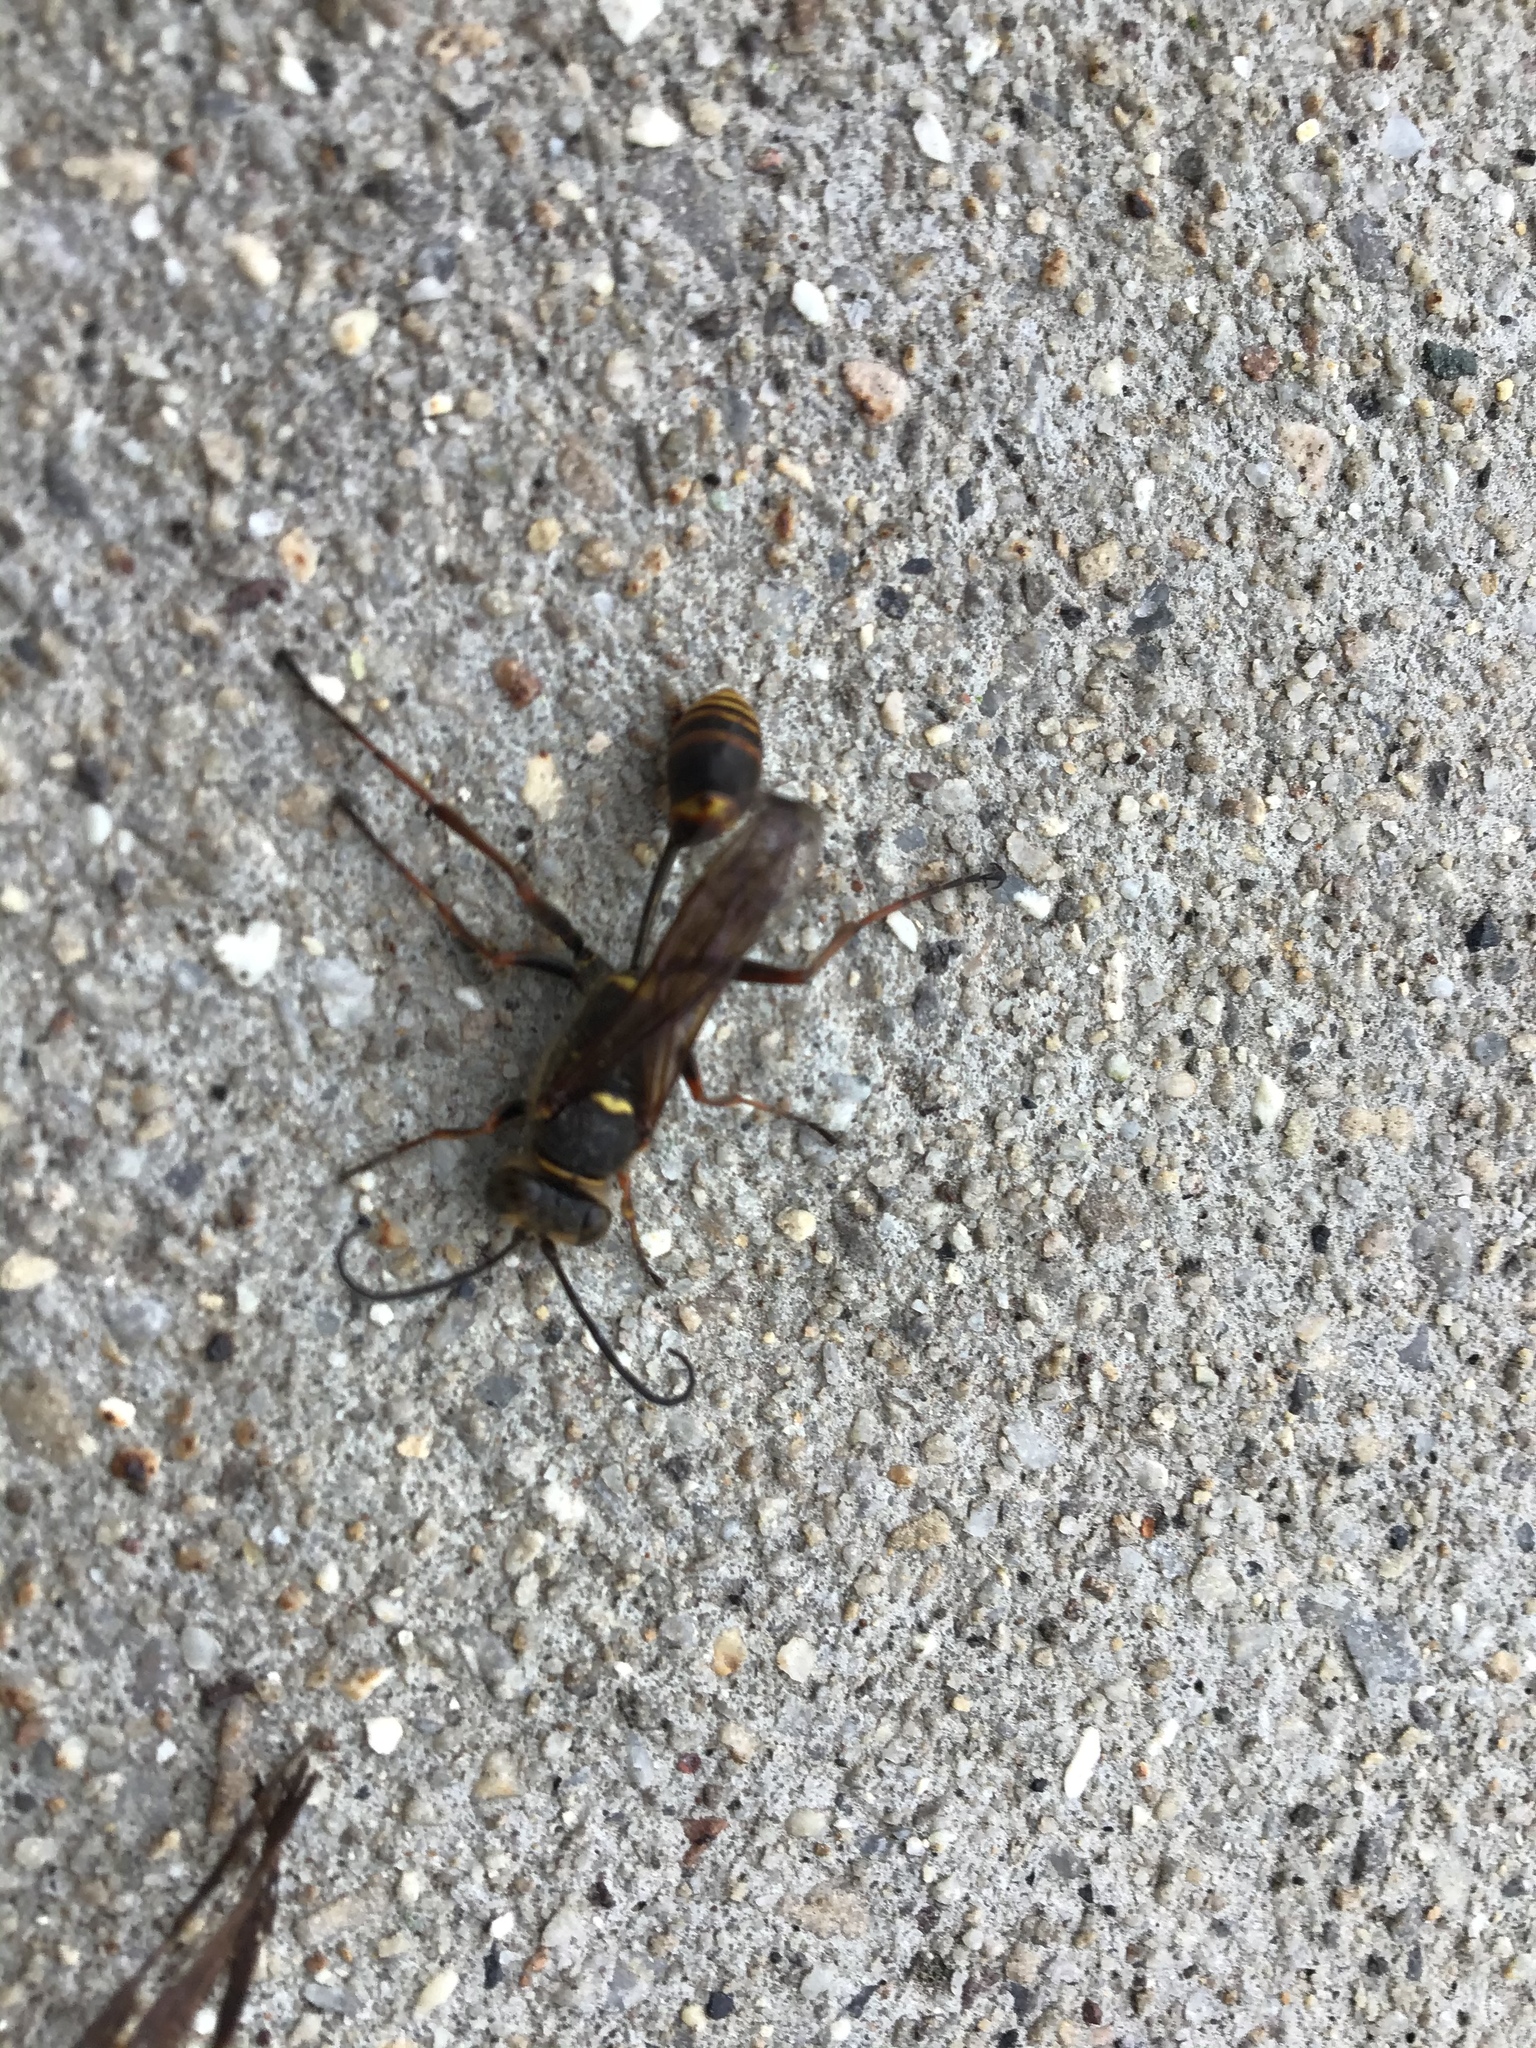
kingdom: Animalia
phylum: Arthropoda
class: Insecta
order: Hymenoptera
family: Sphecidae
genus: Sceliphron
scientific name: Sceliphron curvatum
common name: Pèlopèe
